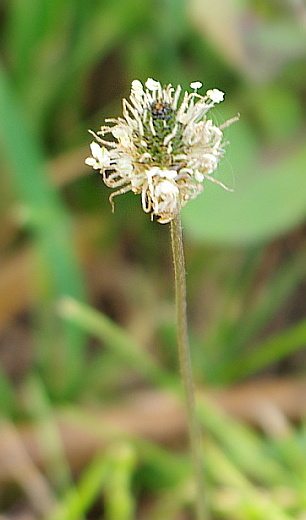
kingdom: Plantae
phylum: Tracheophyta
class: Magnoliopsida
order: Lamiales
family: Plantaginaceae
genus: Plantago
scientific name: Plantago lanceolata
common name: Ribwort plantain
